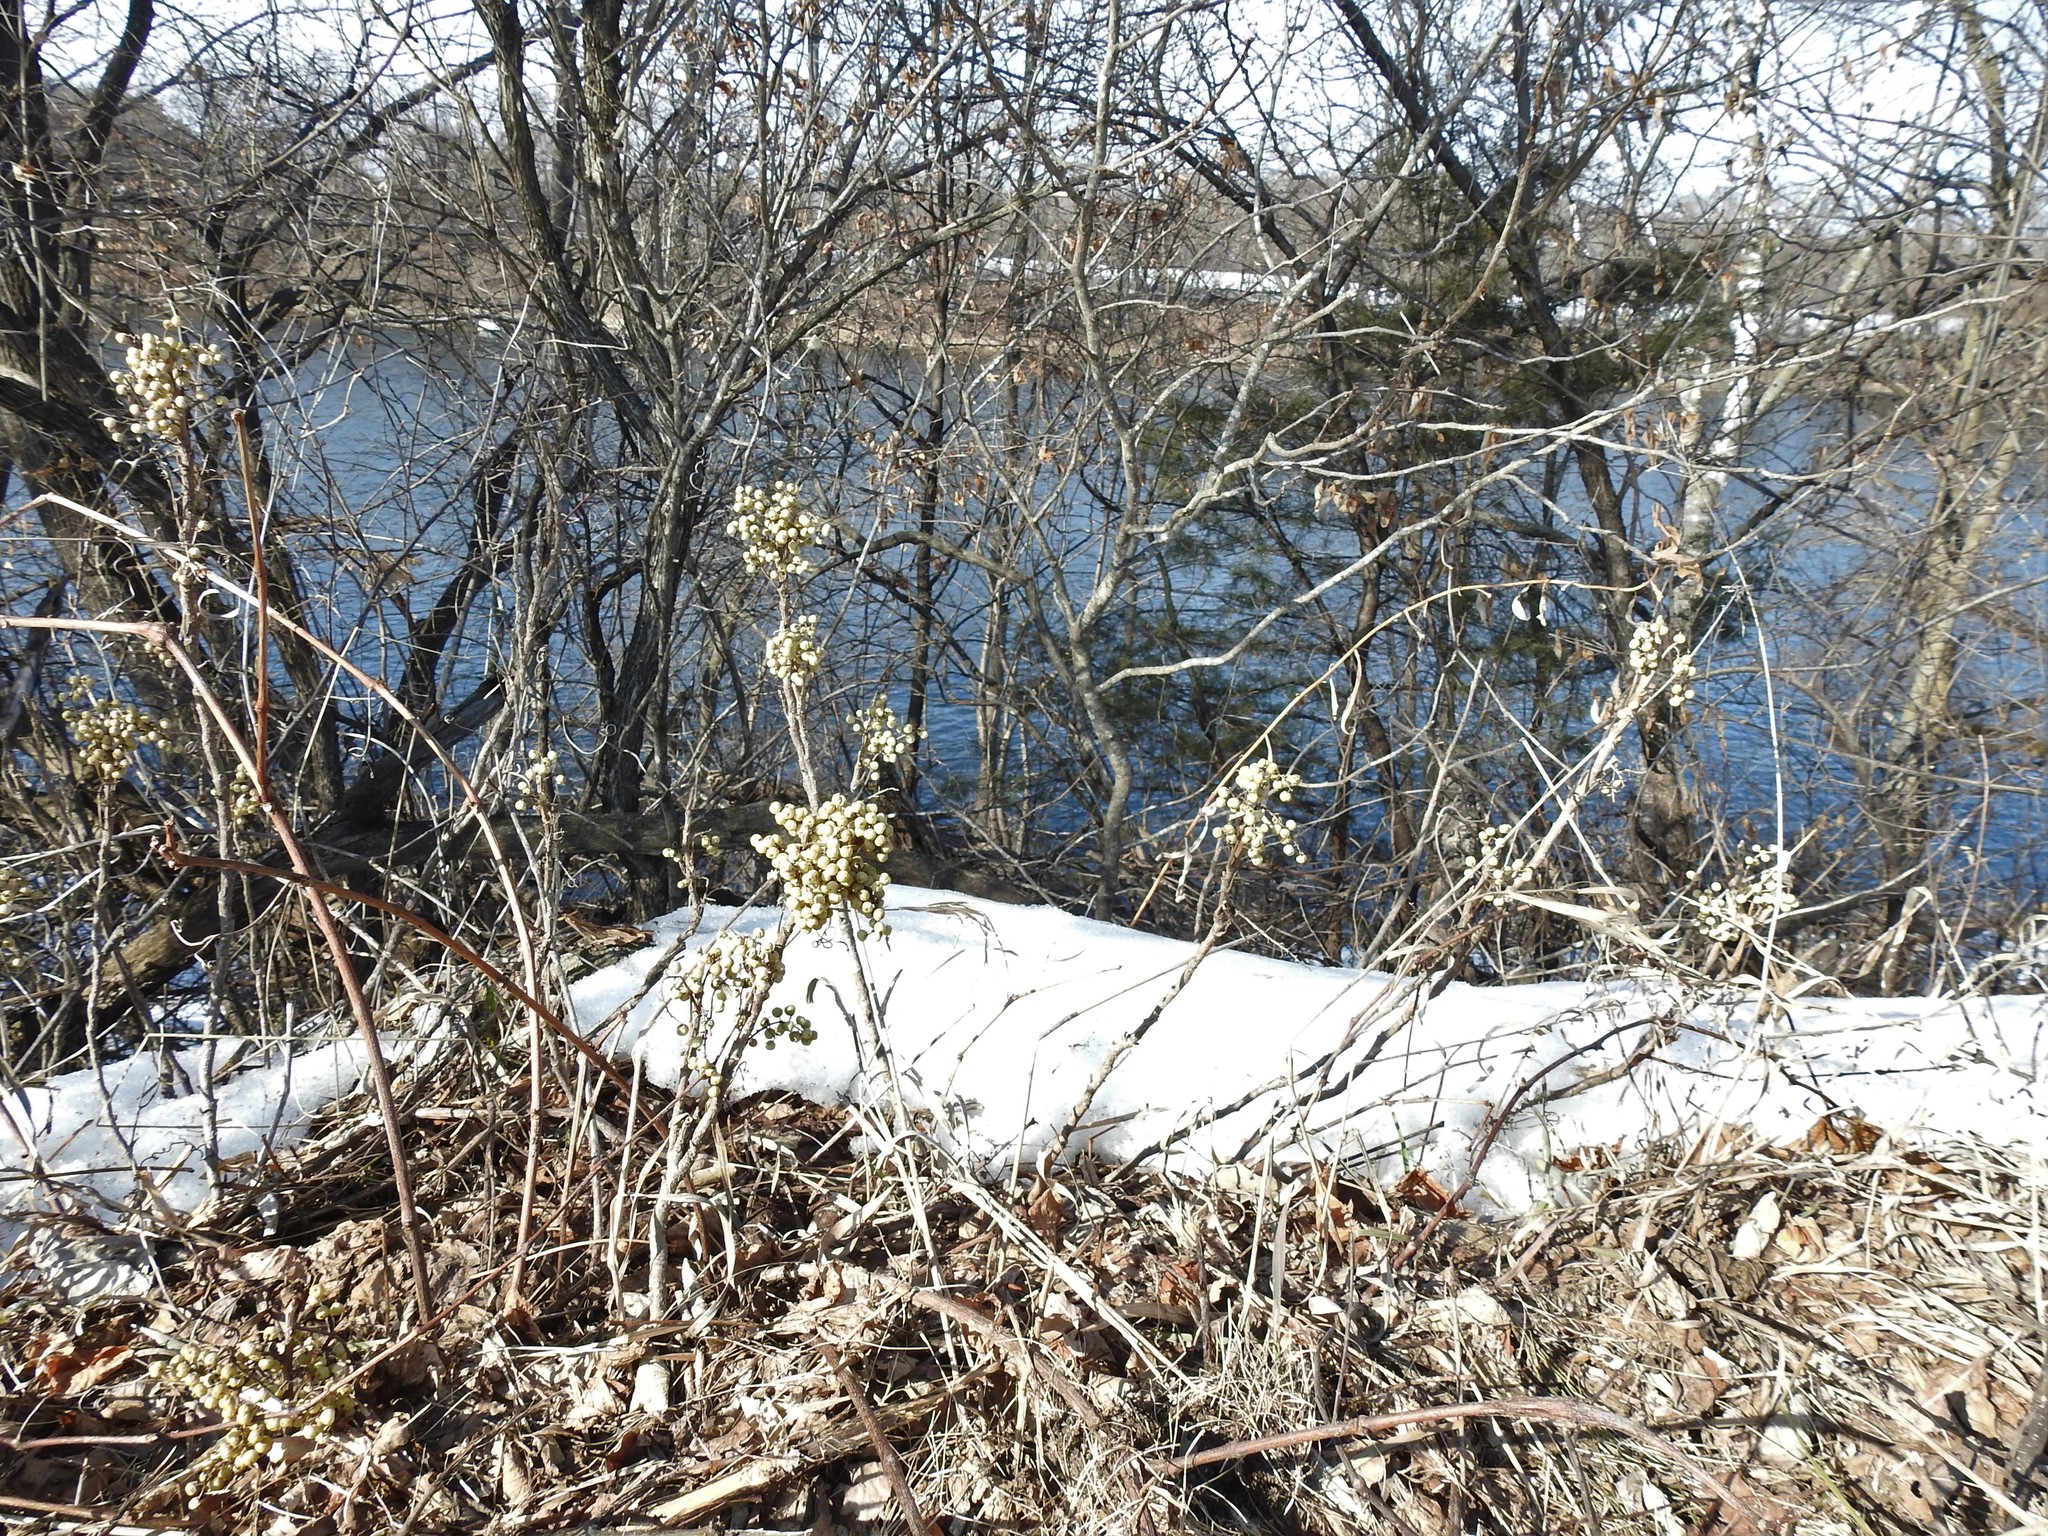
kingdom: Plantae
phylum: Tracheophyta
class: Magnoliopsida
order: Sapindales
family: Anacardiaceae
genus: Toxicodendron
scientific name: Toxicodendron rydbergii
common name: Rydberg's poison-ivy
